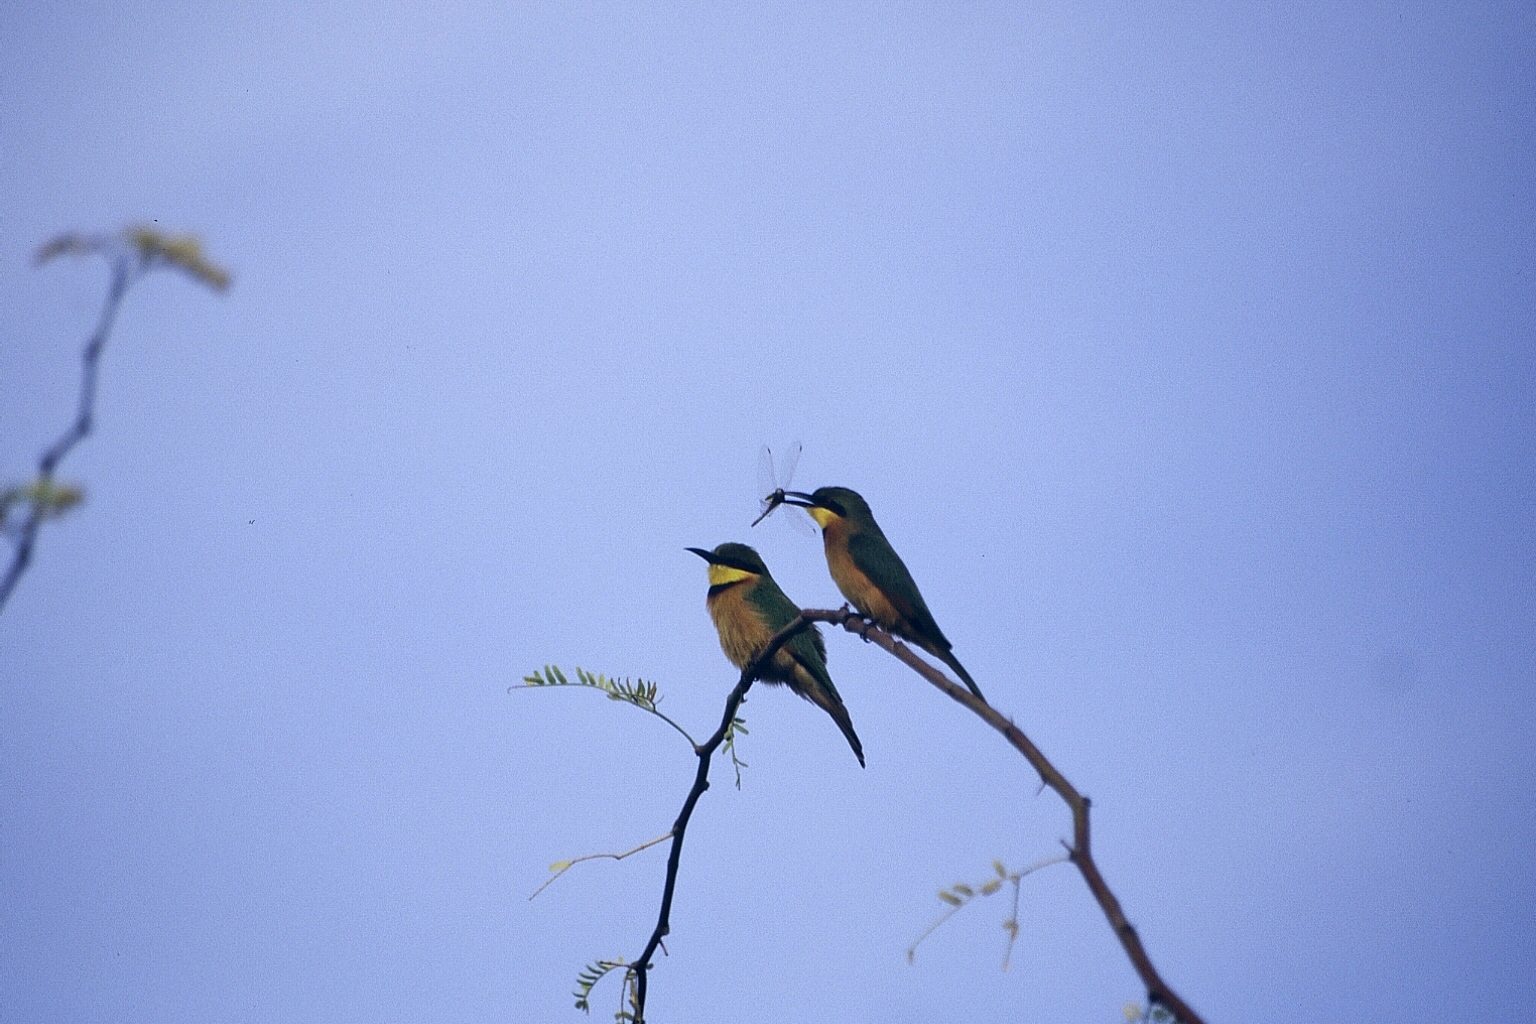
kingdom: Animalia
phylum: Chordata
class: Aves
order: Coraciiformes
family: Meropidae
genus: Merops
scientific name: Merops pusillus
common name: Little bee-eater
